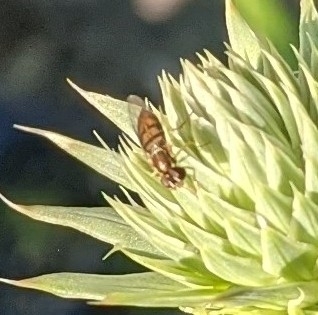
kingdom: Animalia
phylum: Arthropoda
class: Insecta
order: Diptera
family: Syrphidae
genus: Toxomerus
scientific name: Toxomerus marginatus
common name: Syrphid fly
